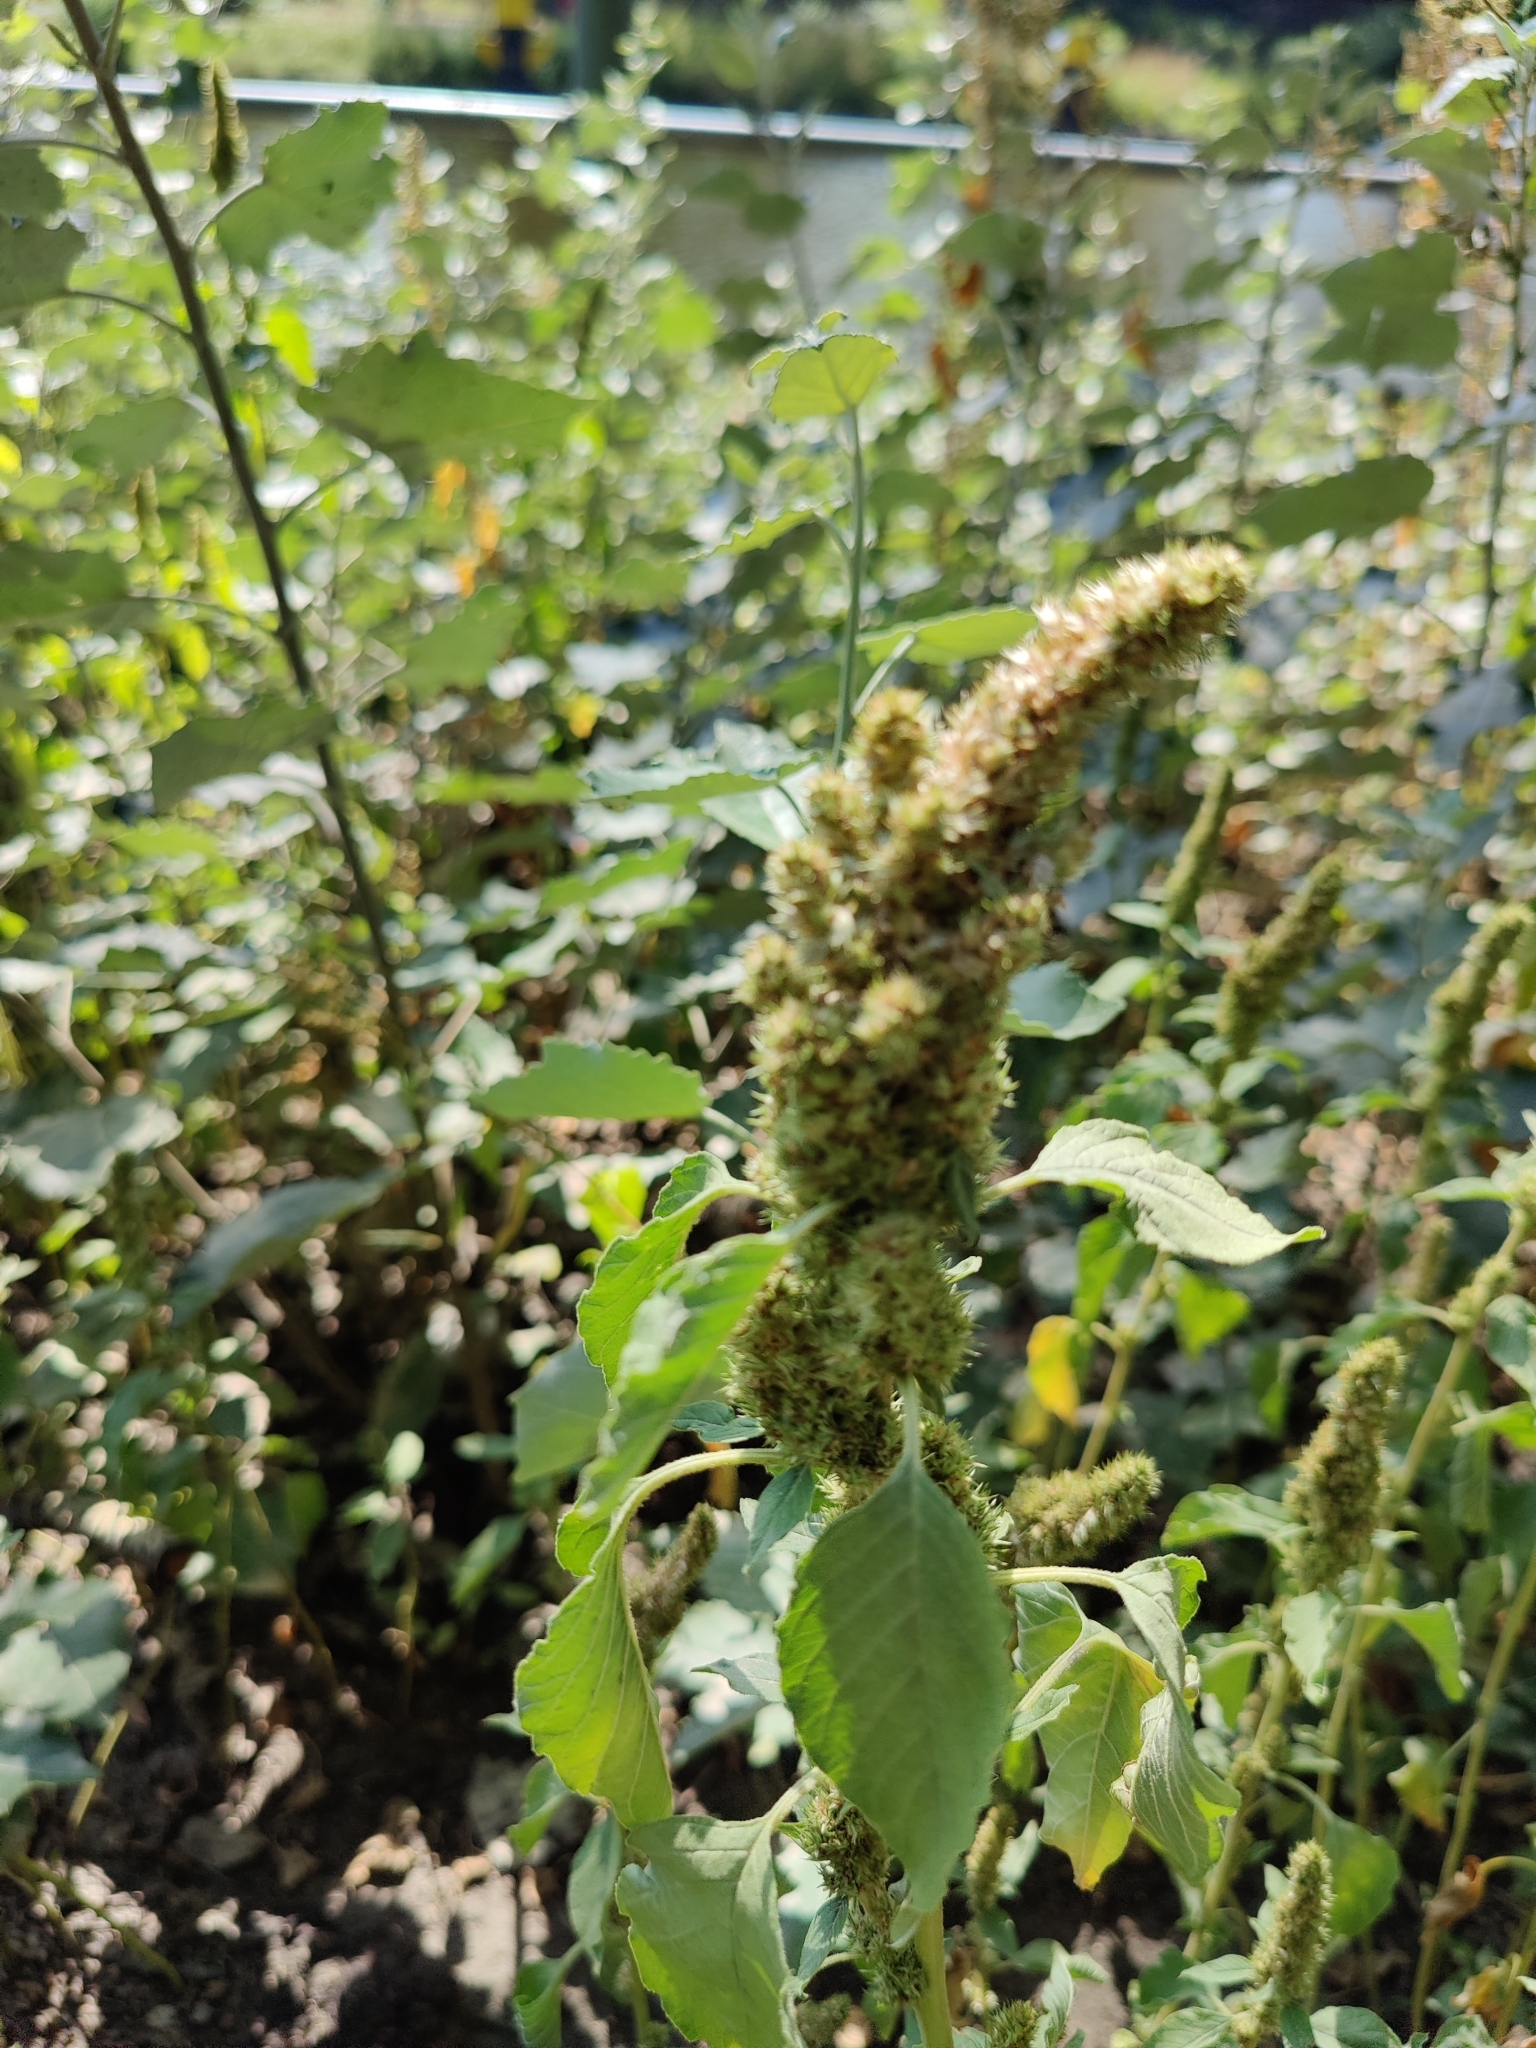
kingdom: Plantae
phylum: Tracheophyta
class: Magnoliopsida
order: Caryophyllales
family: Amaranthaceae
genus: Amaranthus
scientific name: Amaranthus retroflexus
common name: Redroot amaranth
